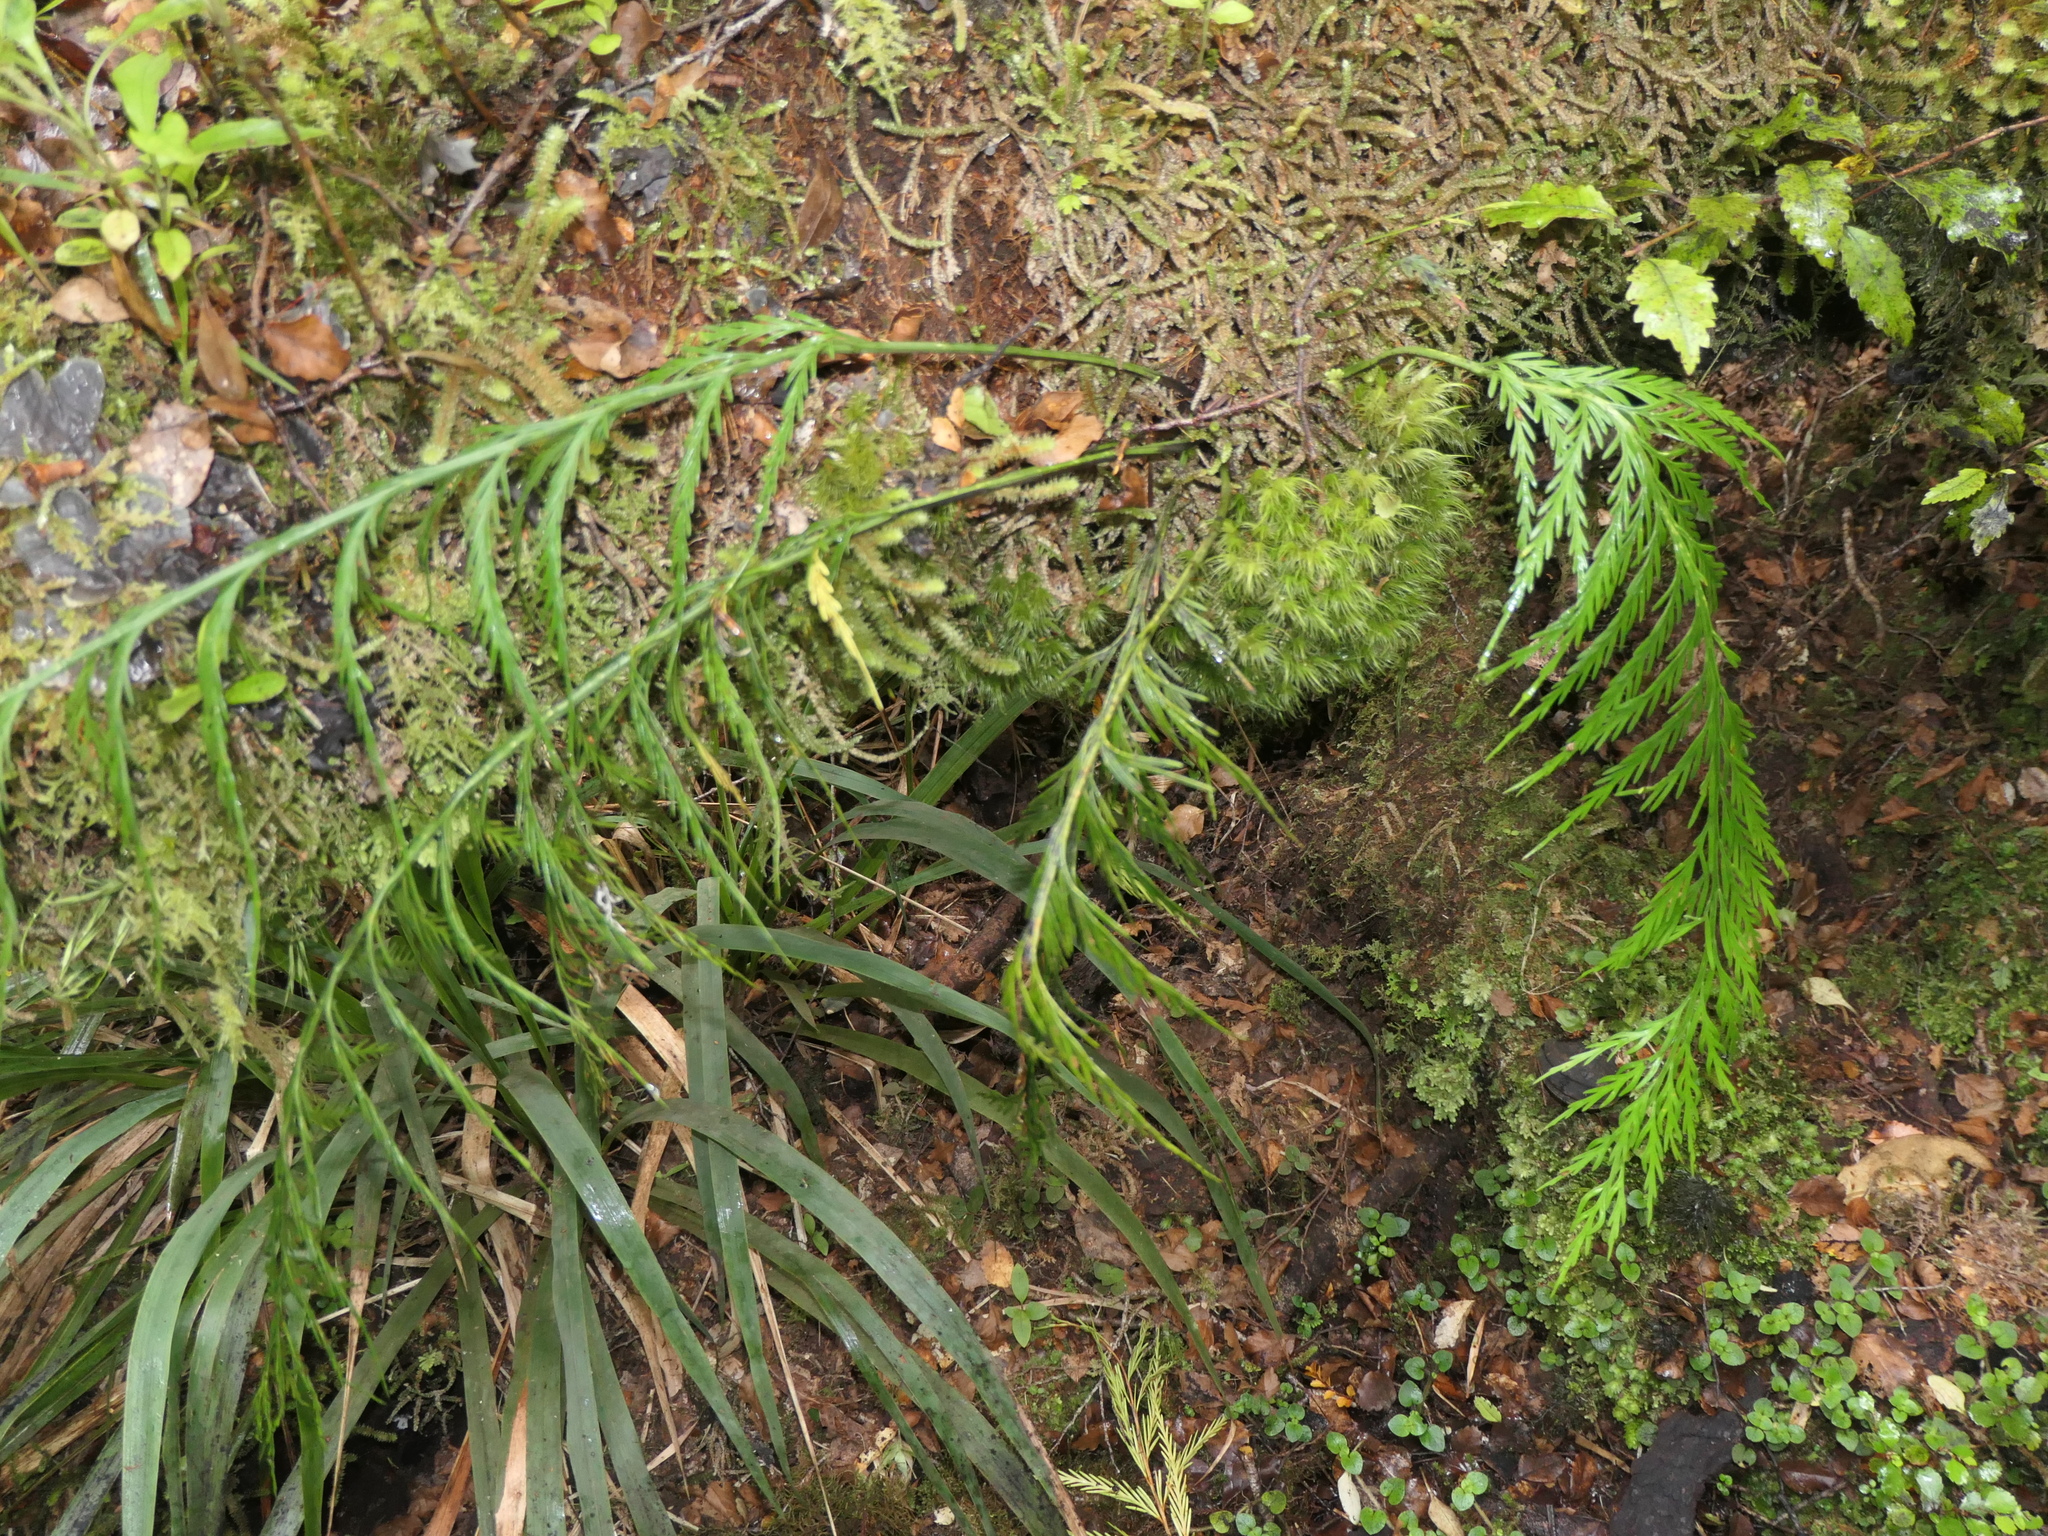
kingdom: Plantae
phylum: Tracheophyta
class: Polypodiopsida
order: Polypodiales
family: Aspleniaceae
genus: Asplenium
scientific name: Asplenium flaccidum
